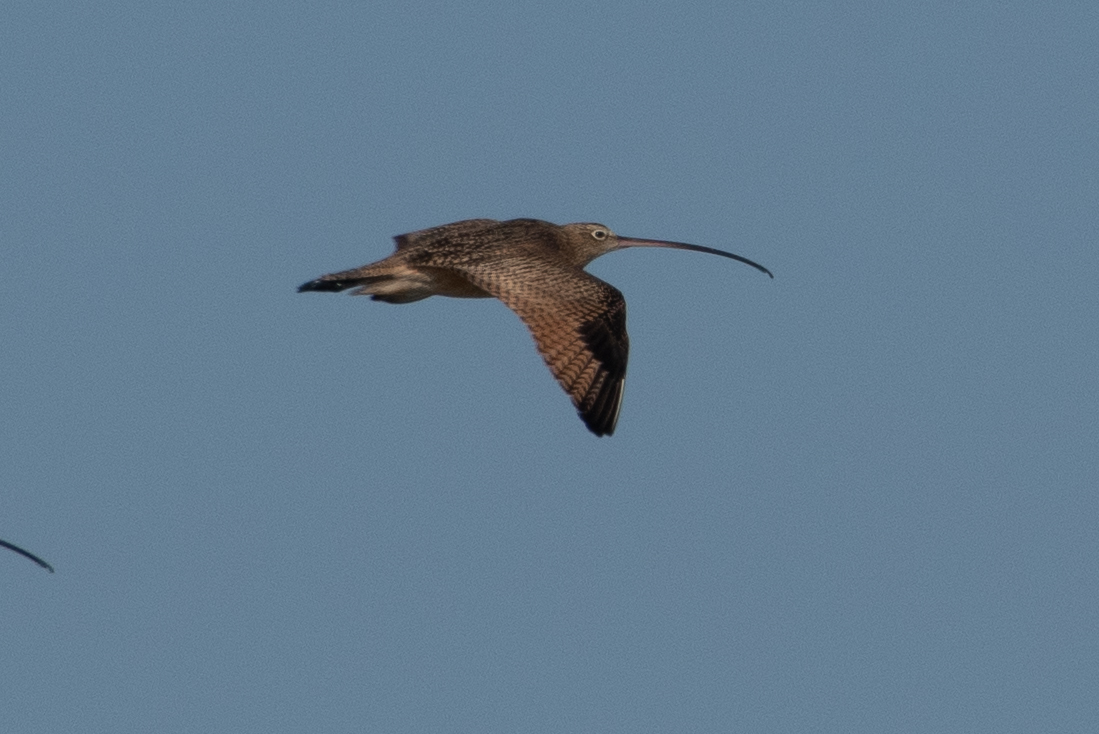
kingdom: Animalia
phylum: Chordata
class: Aves
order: Charadriiformes
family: Scolopacidae
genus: Numenius
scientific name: Numenius americanus
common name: Long-billed curlew
